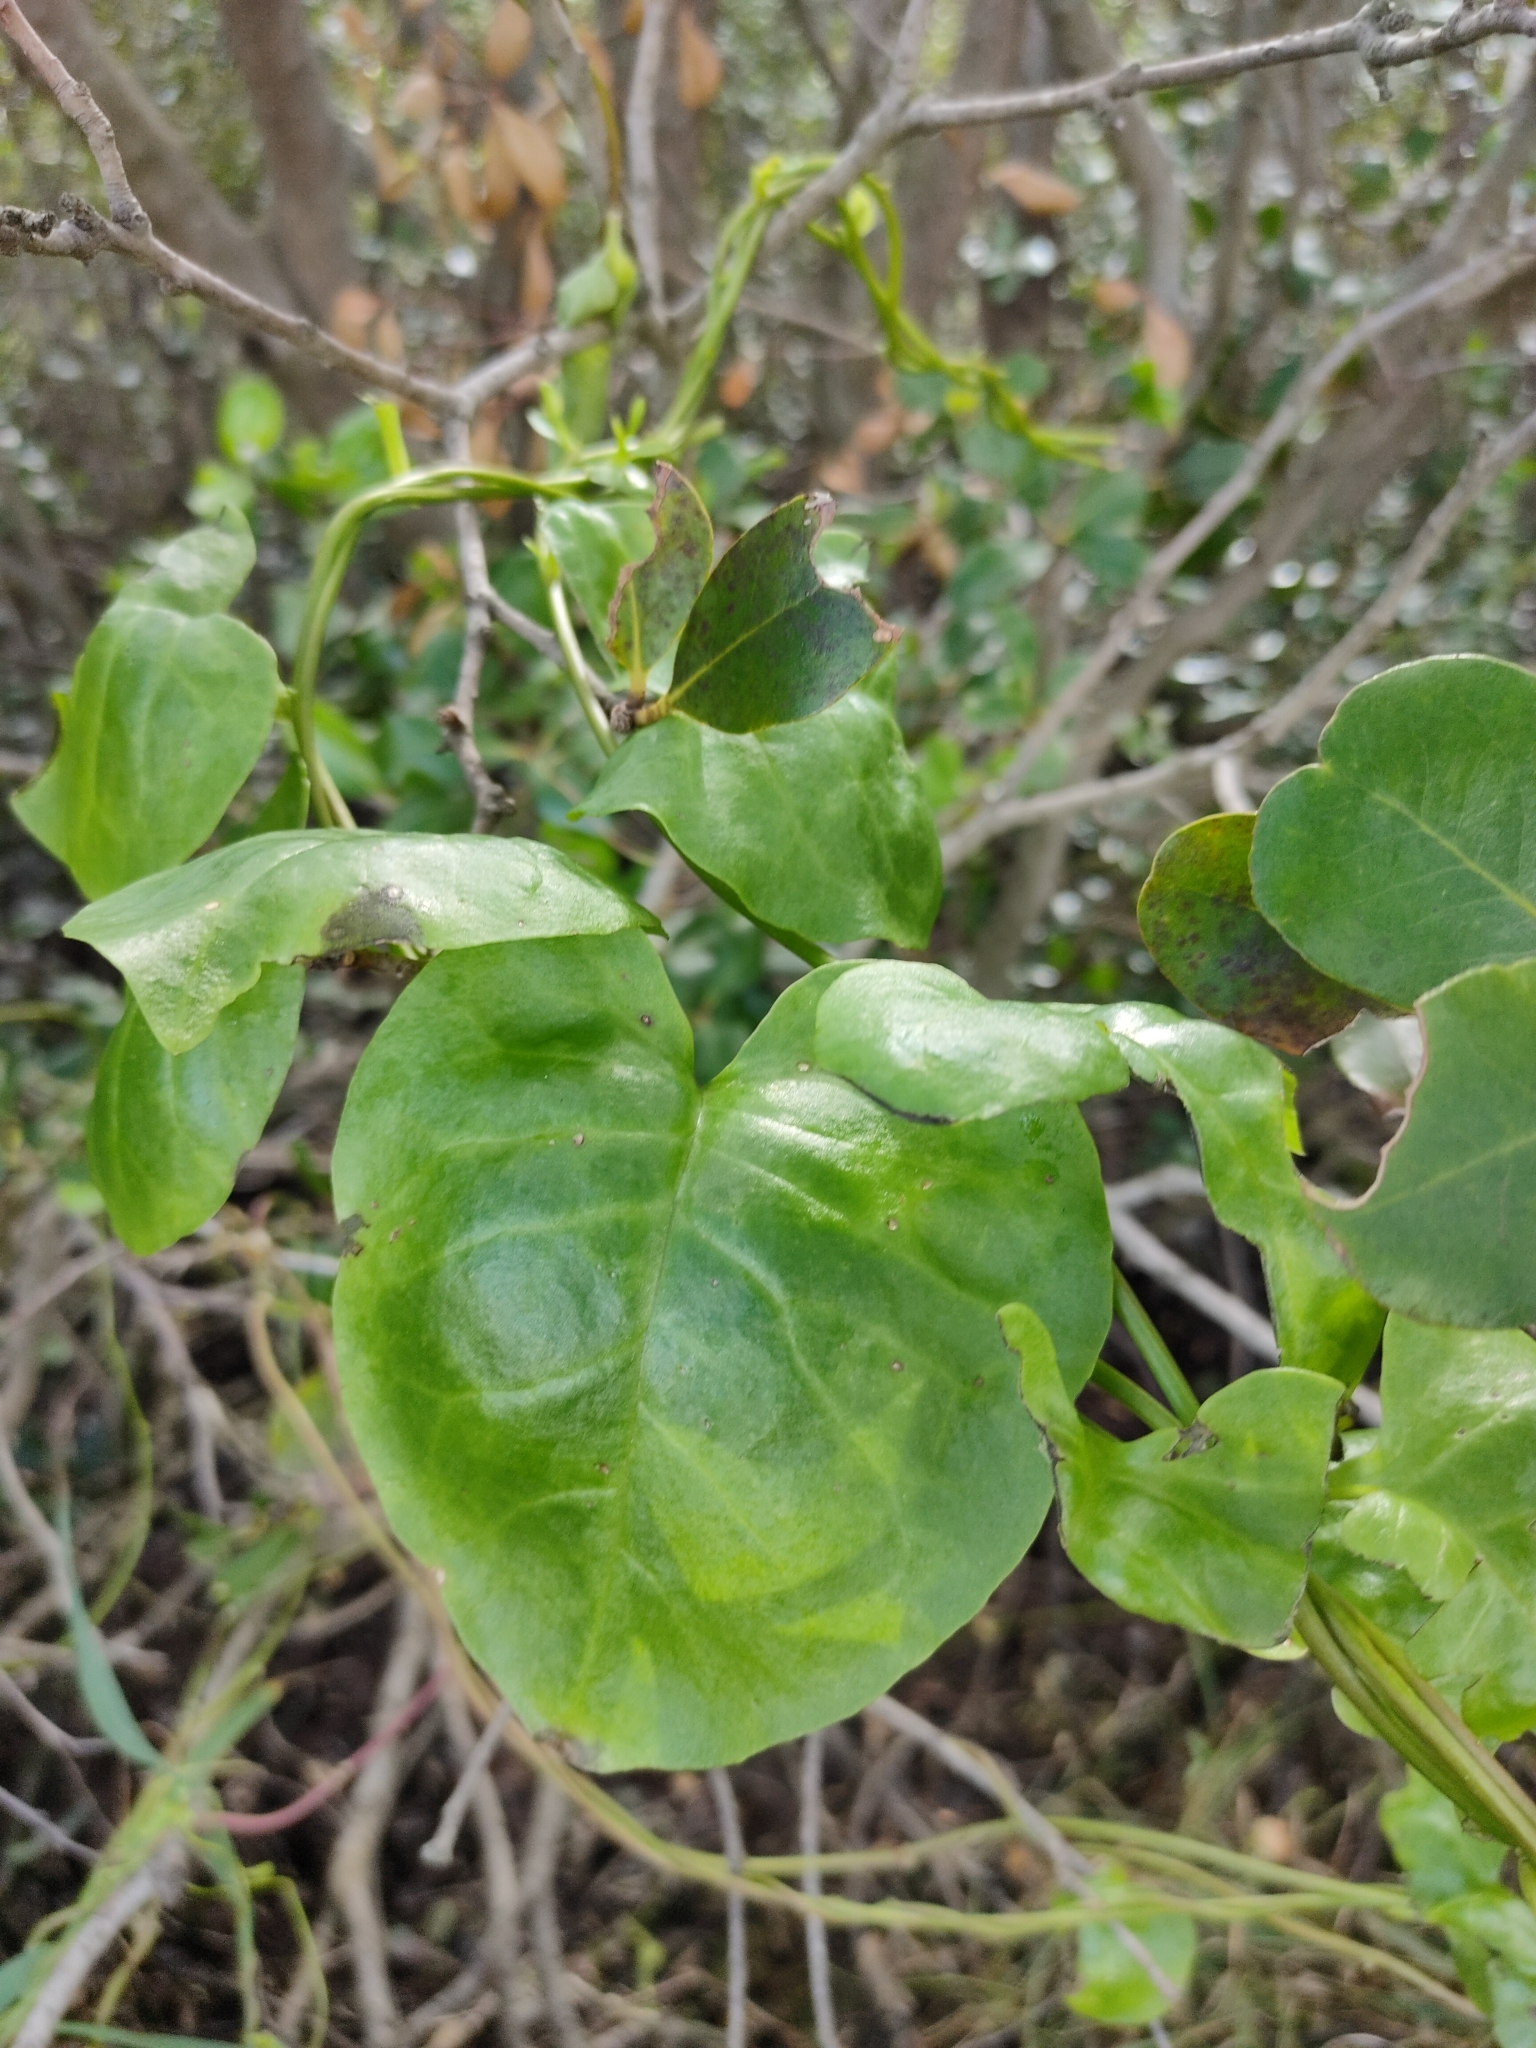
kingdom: Plantae
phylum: Tracheophyta
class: Magnoliopsida
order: Caryophyllales
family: Basellaceae
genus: Anredera
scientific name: Anredera cordifolia
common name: Heartleaf madeiravine
